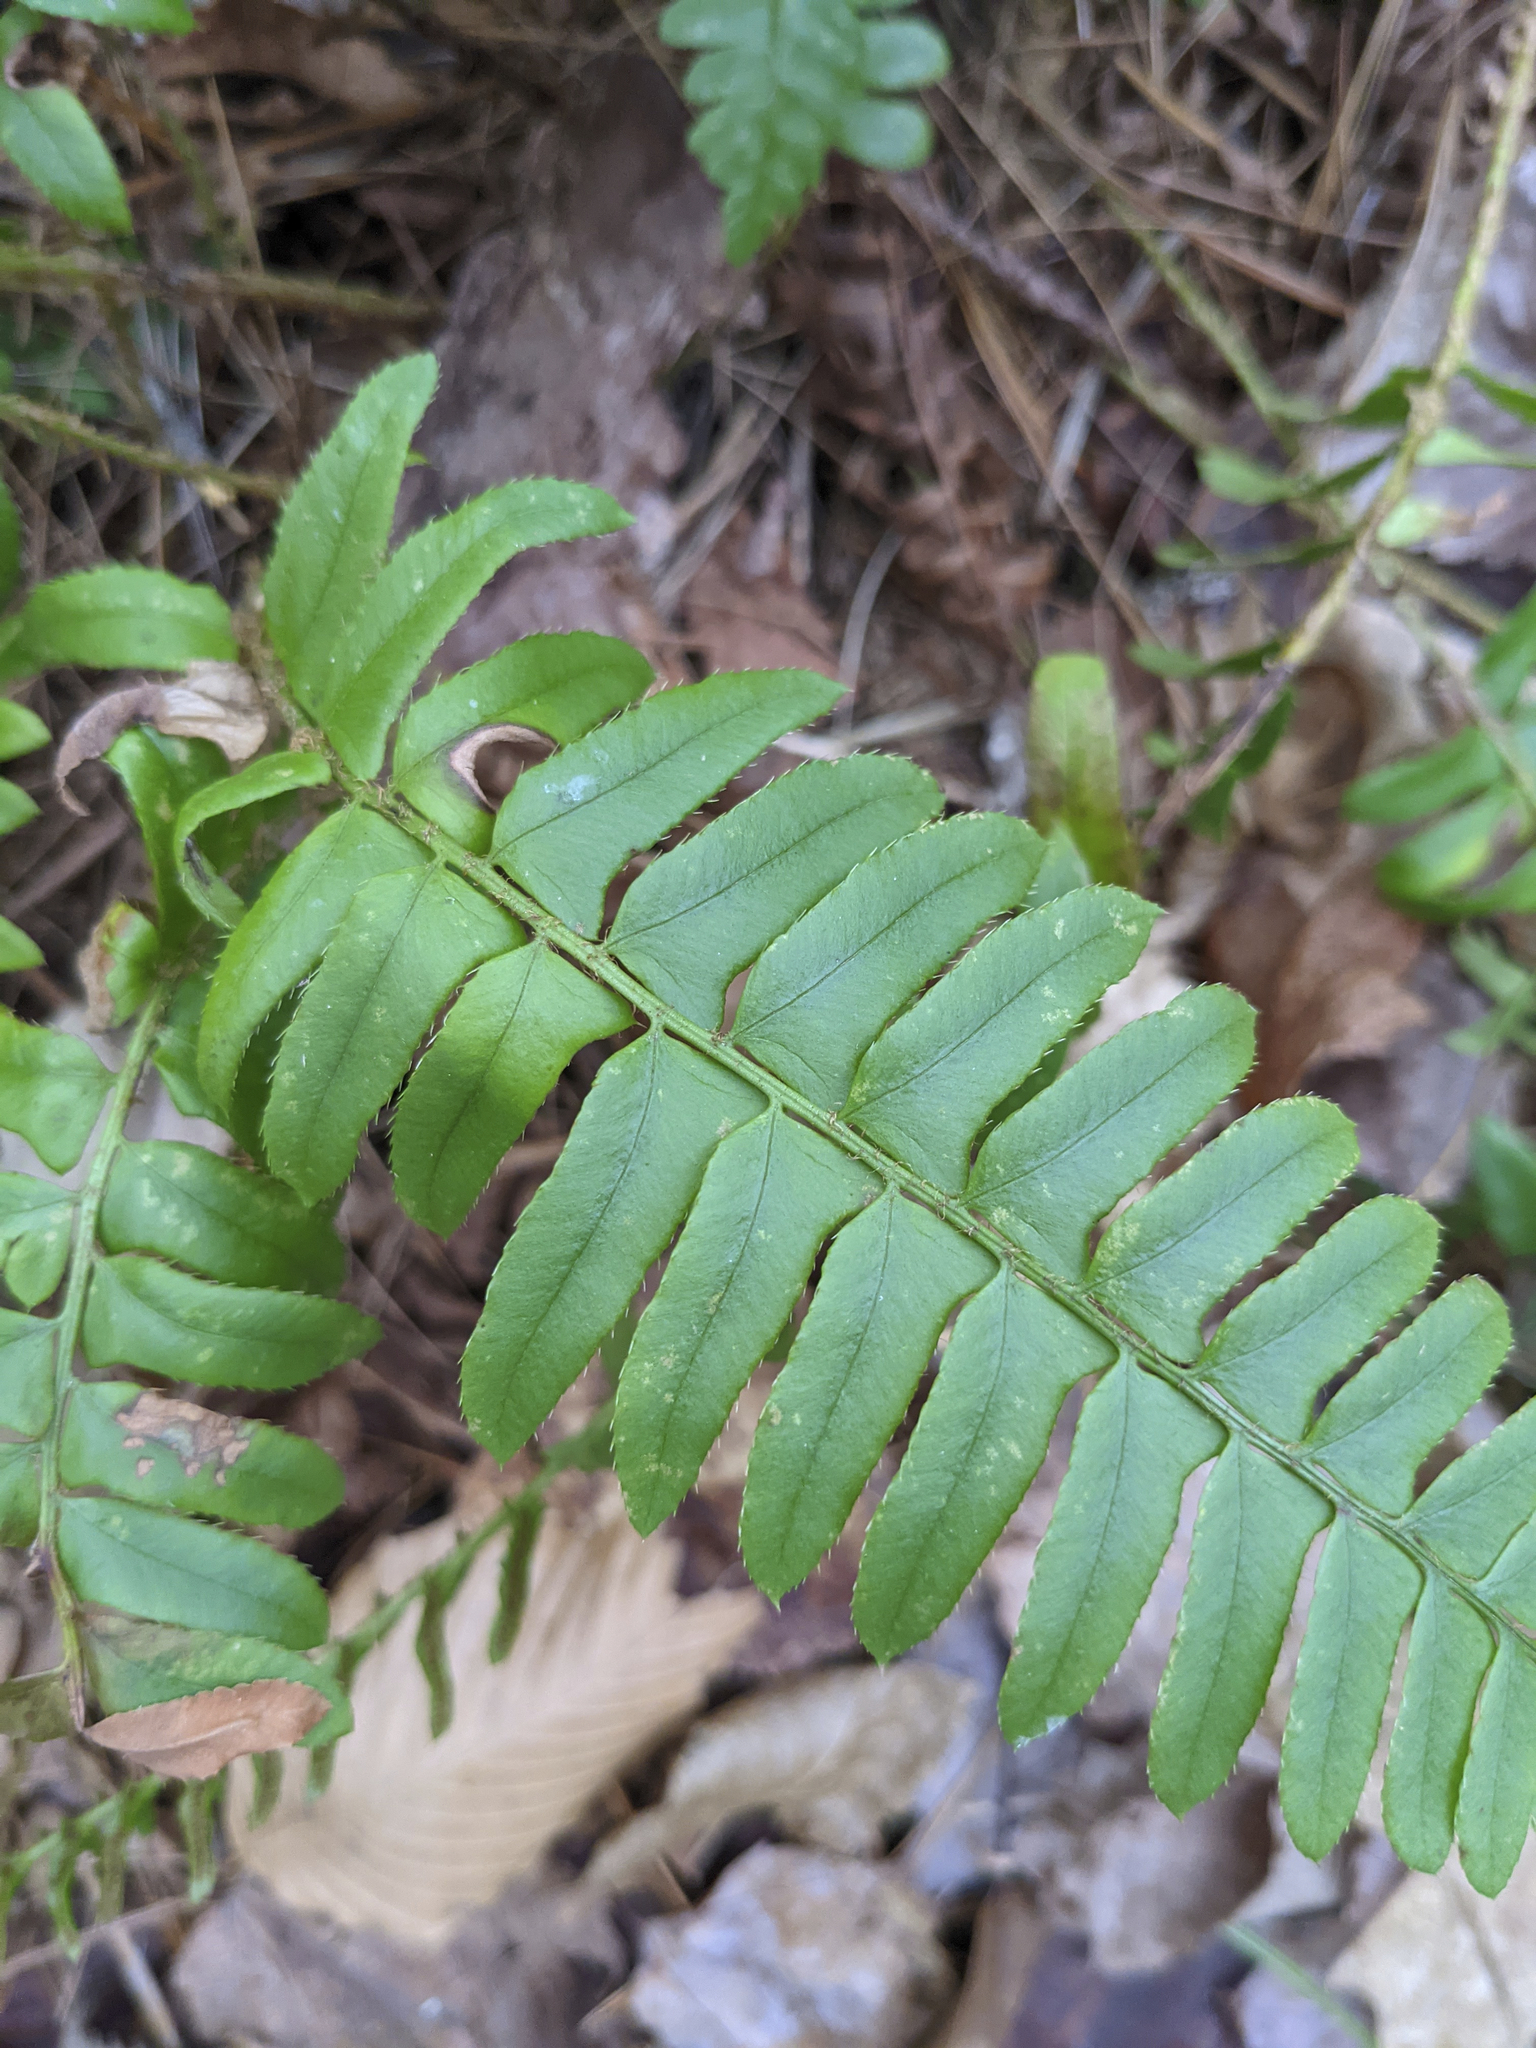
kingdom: Plantae
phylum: Tracheophyta
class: Polypodiopsida
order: Polypodiales
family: Dryopteridaceae
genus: Polystichum
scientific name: Polystichum acrostichoides
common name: Christmas fern
